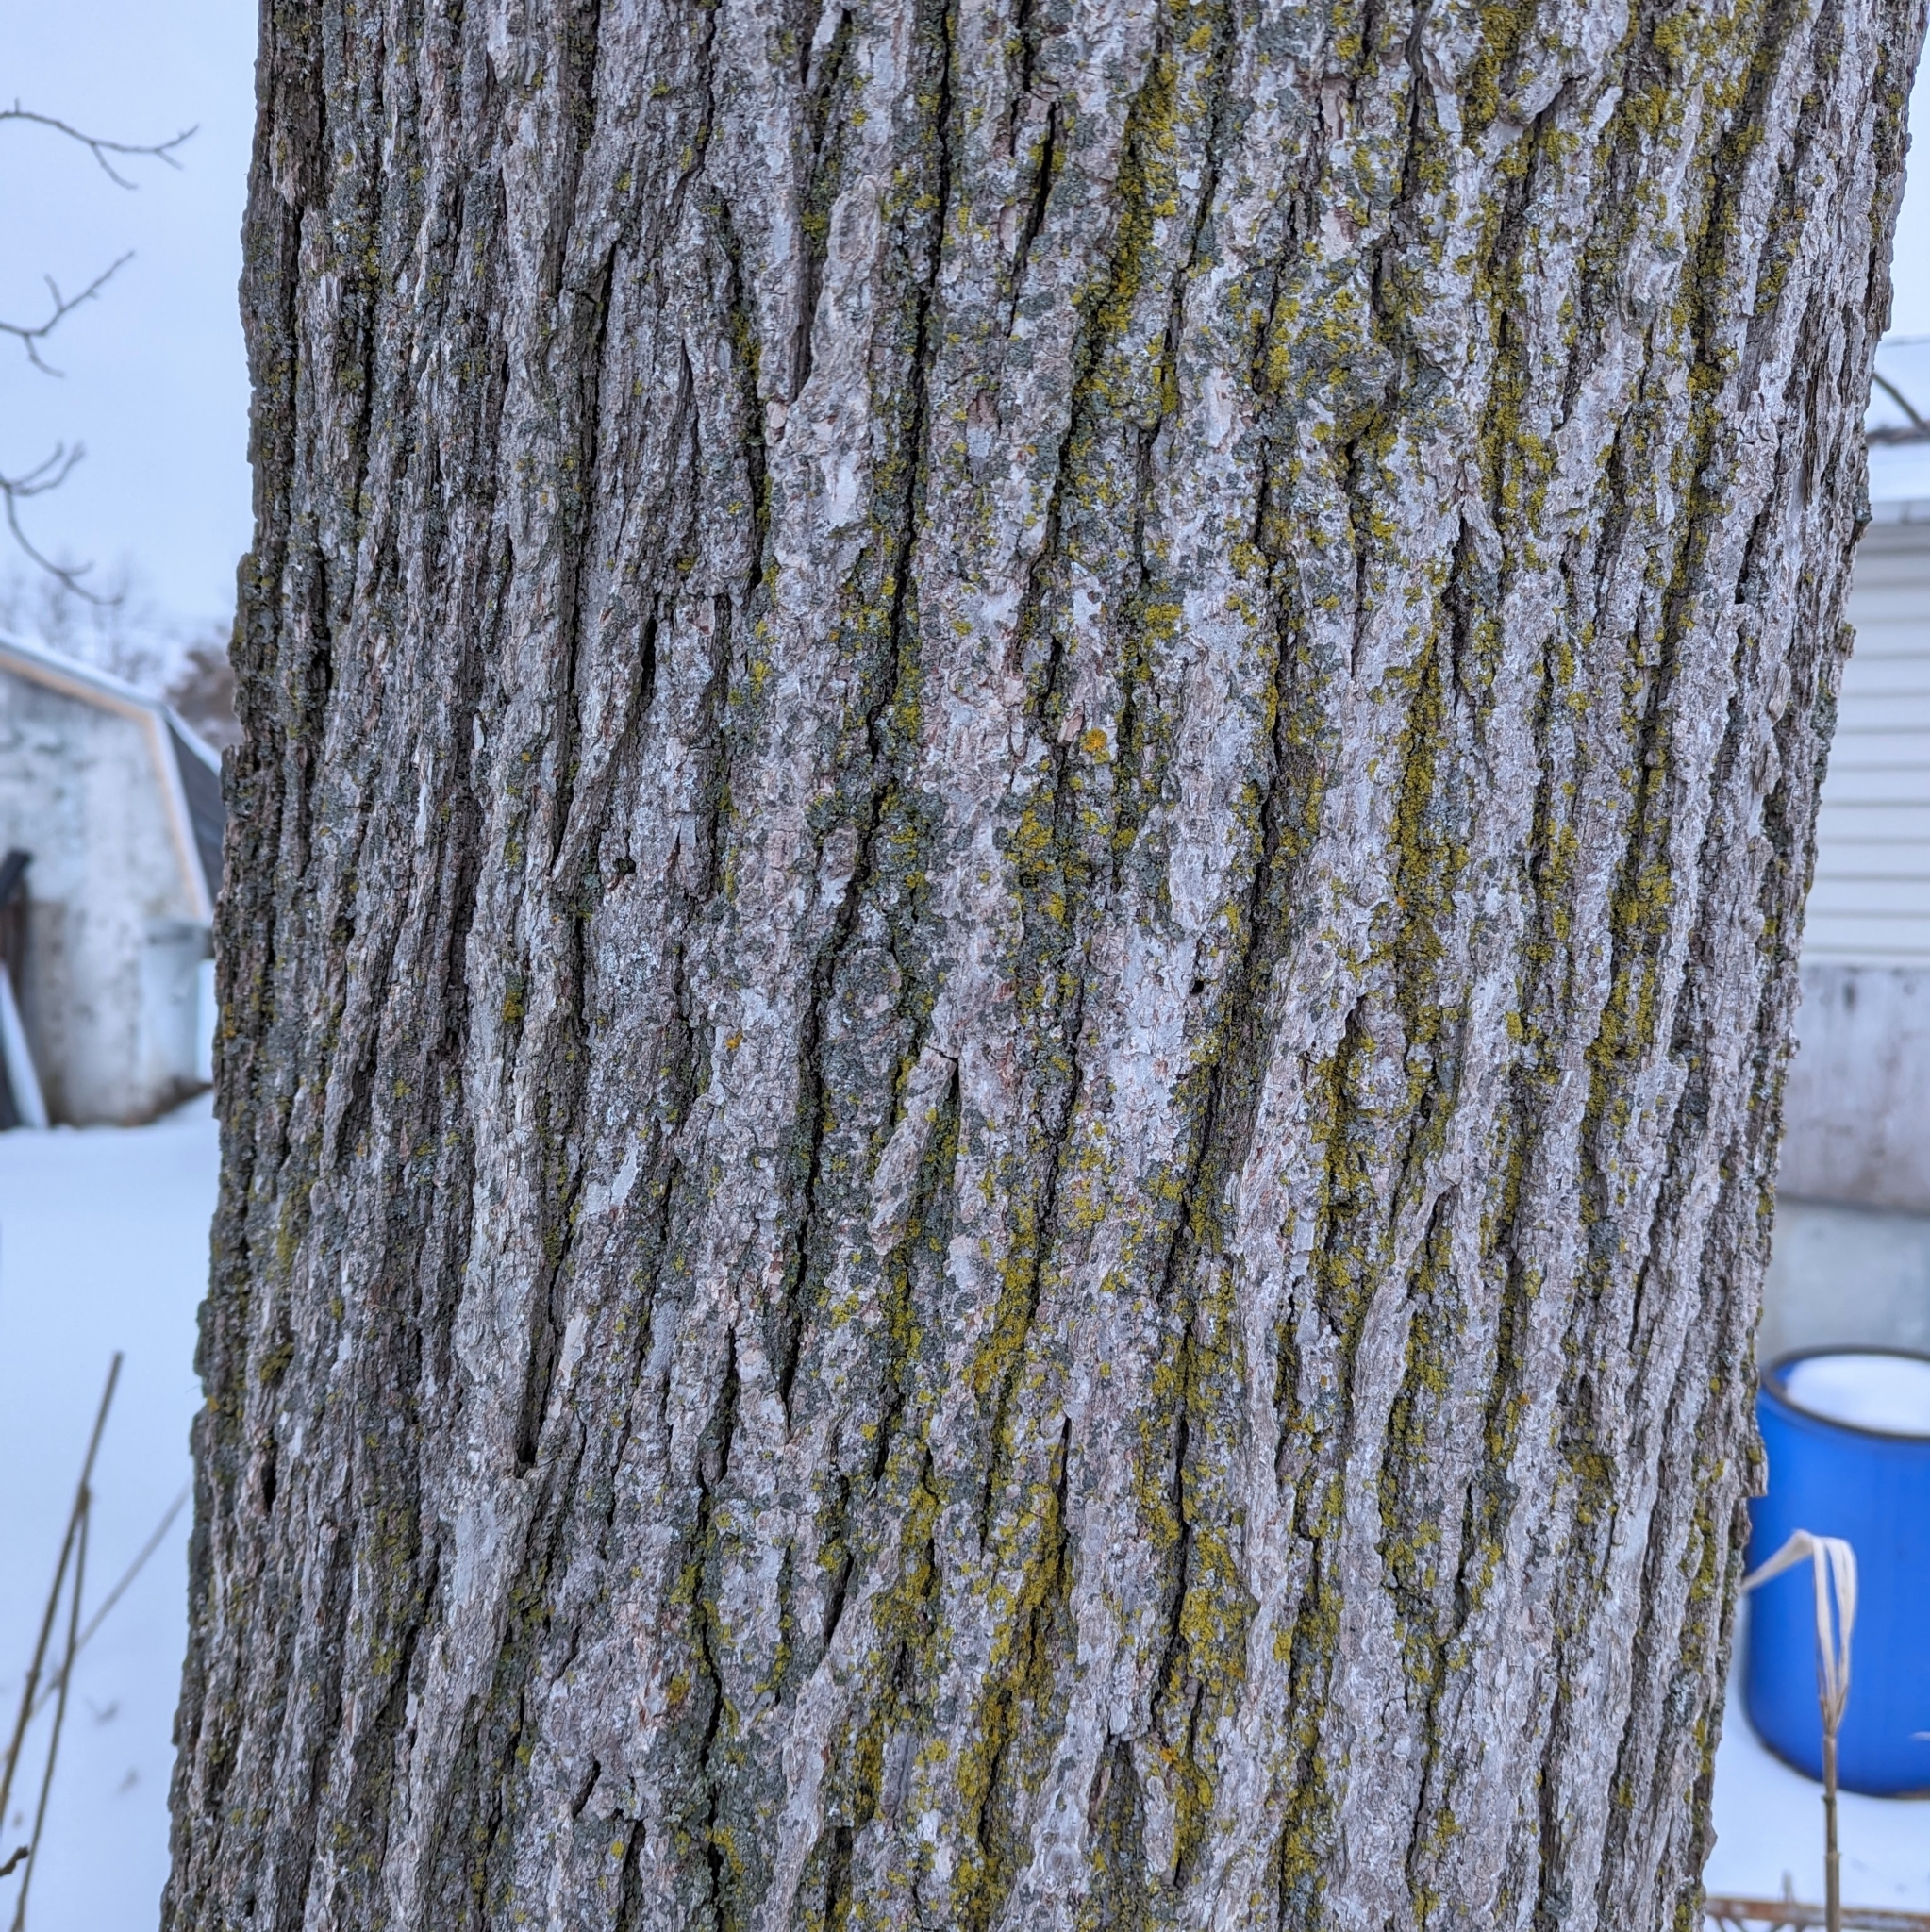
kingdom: Plantae
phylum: Tracheophyta
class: Magnoliopsida
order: Fagales
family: Fagaceae
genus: Quercus
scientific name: Quercus macrocarpa
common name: Bur oak
